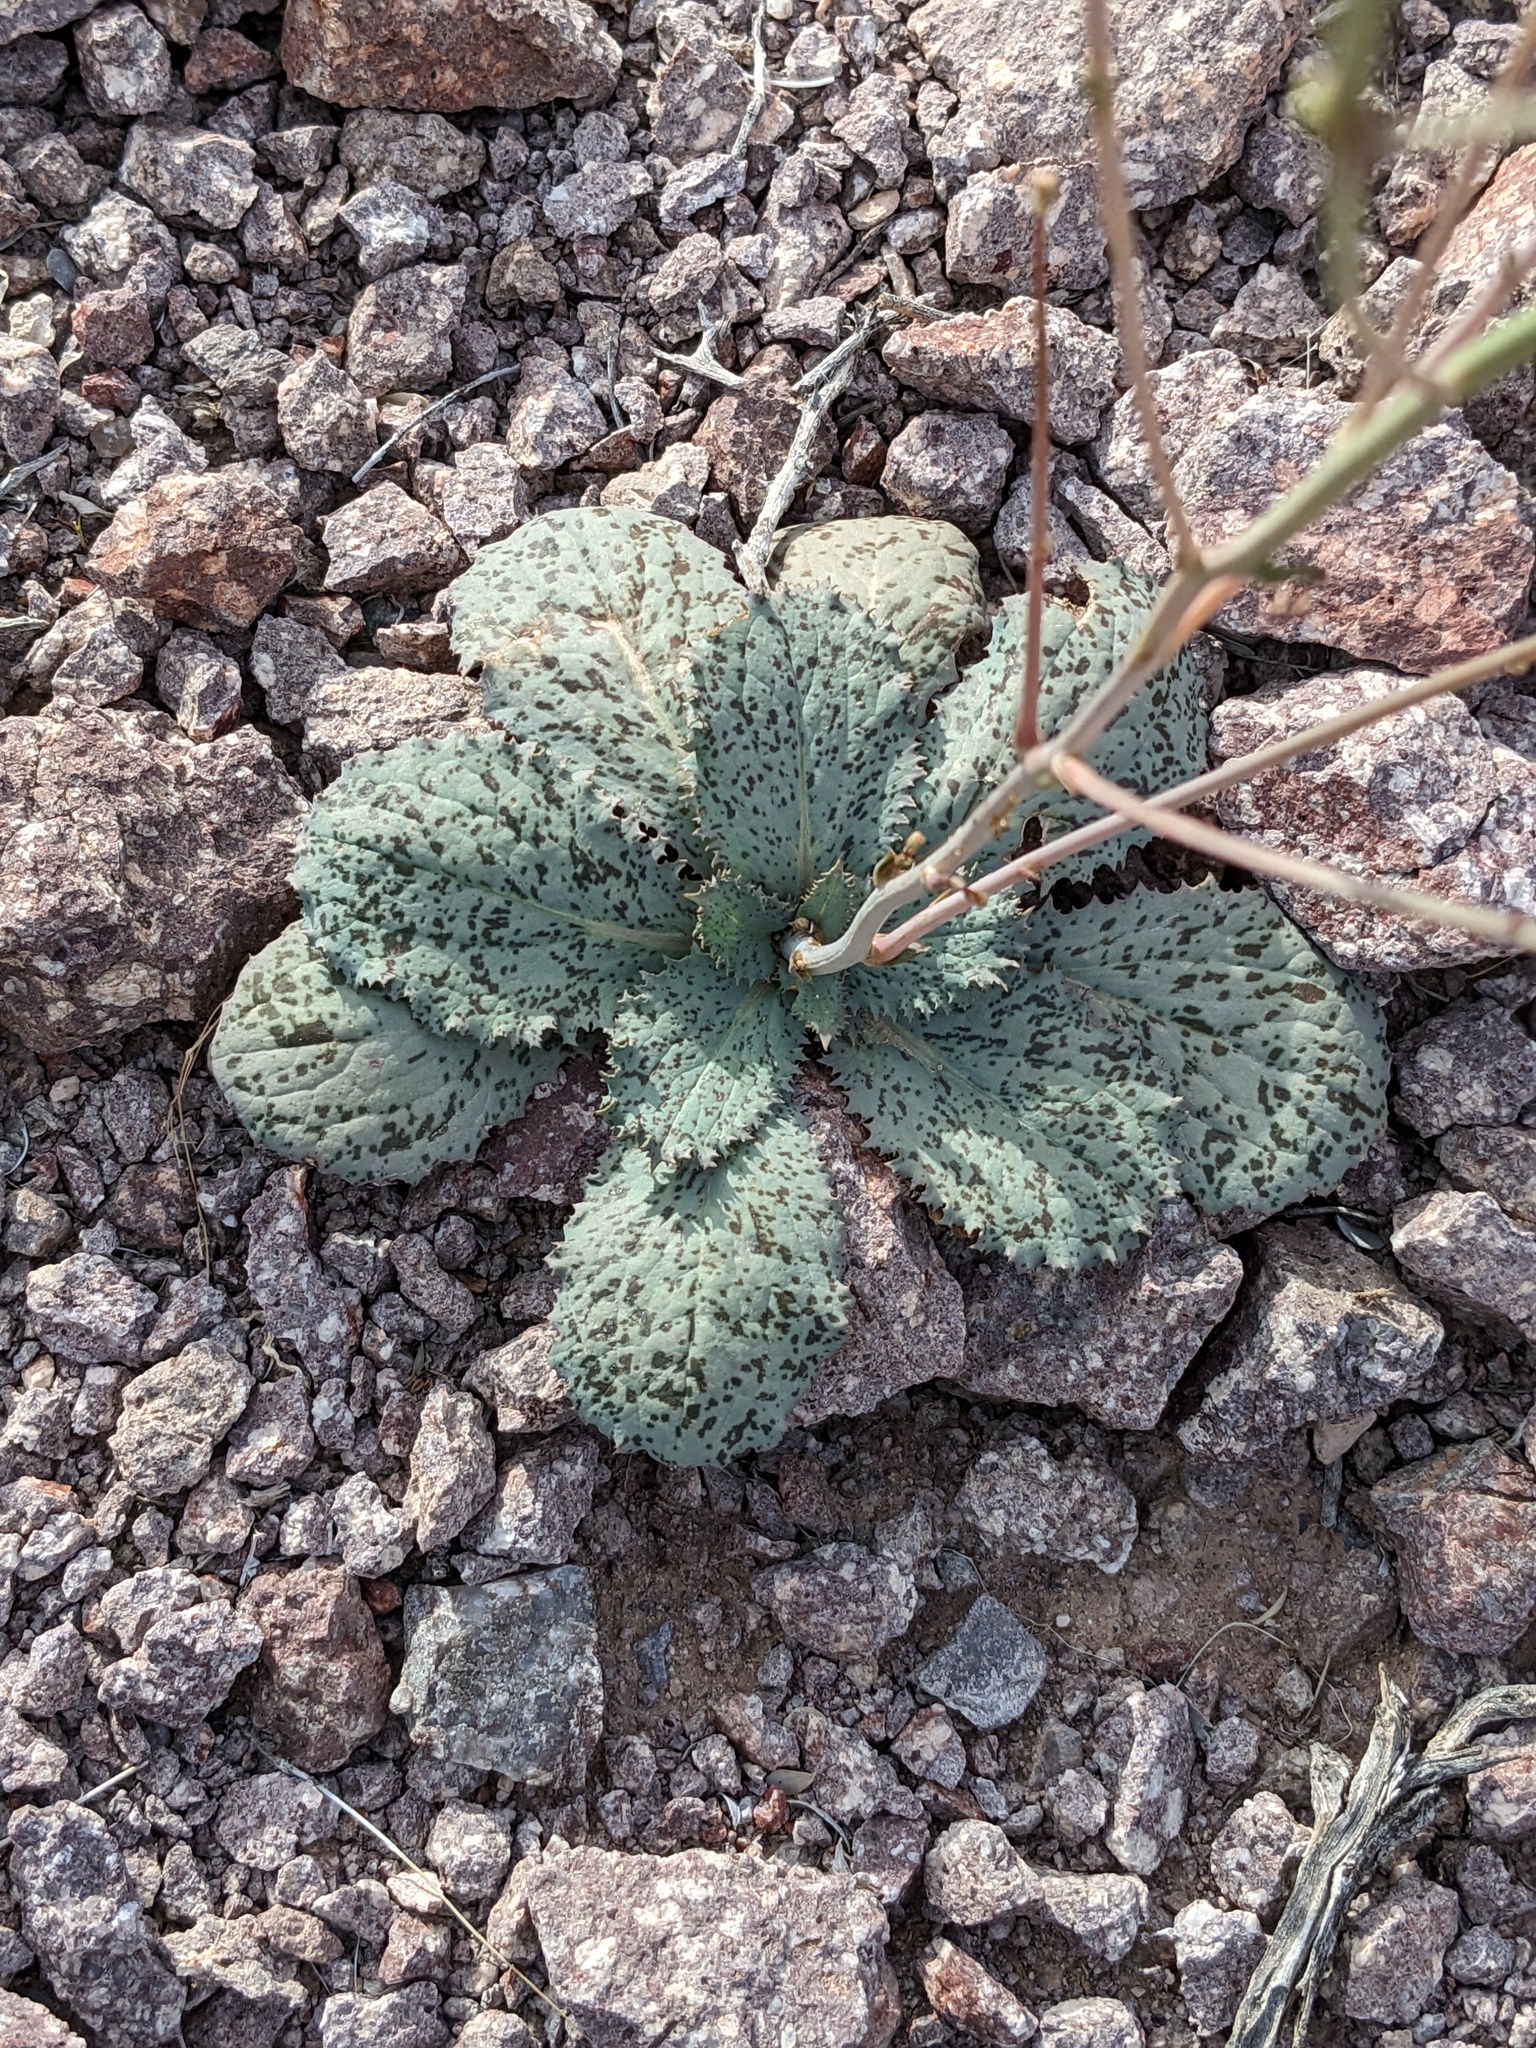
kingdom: Plantae
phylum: Tracheophyta
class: Magnoliopsida
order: Asterales
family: Asteraceae
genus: Atrichoseris
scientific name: Atrichoseris platyphylla
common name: Tobaccoweed
